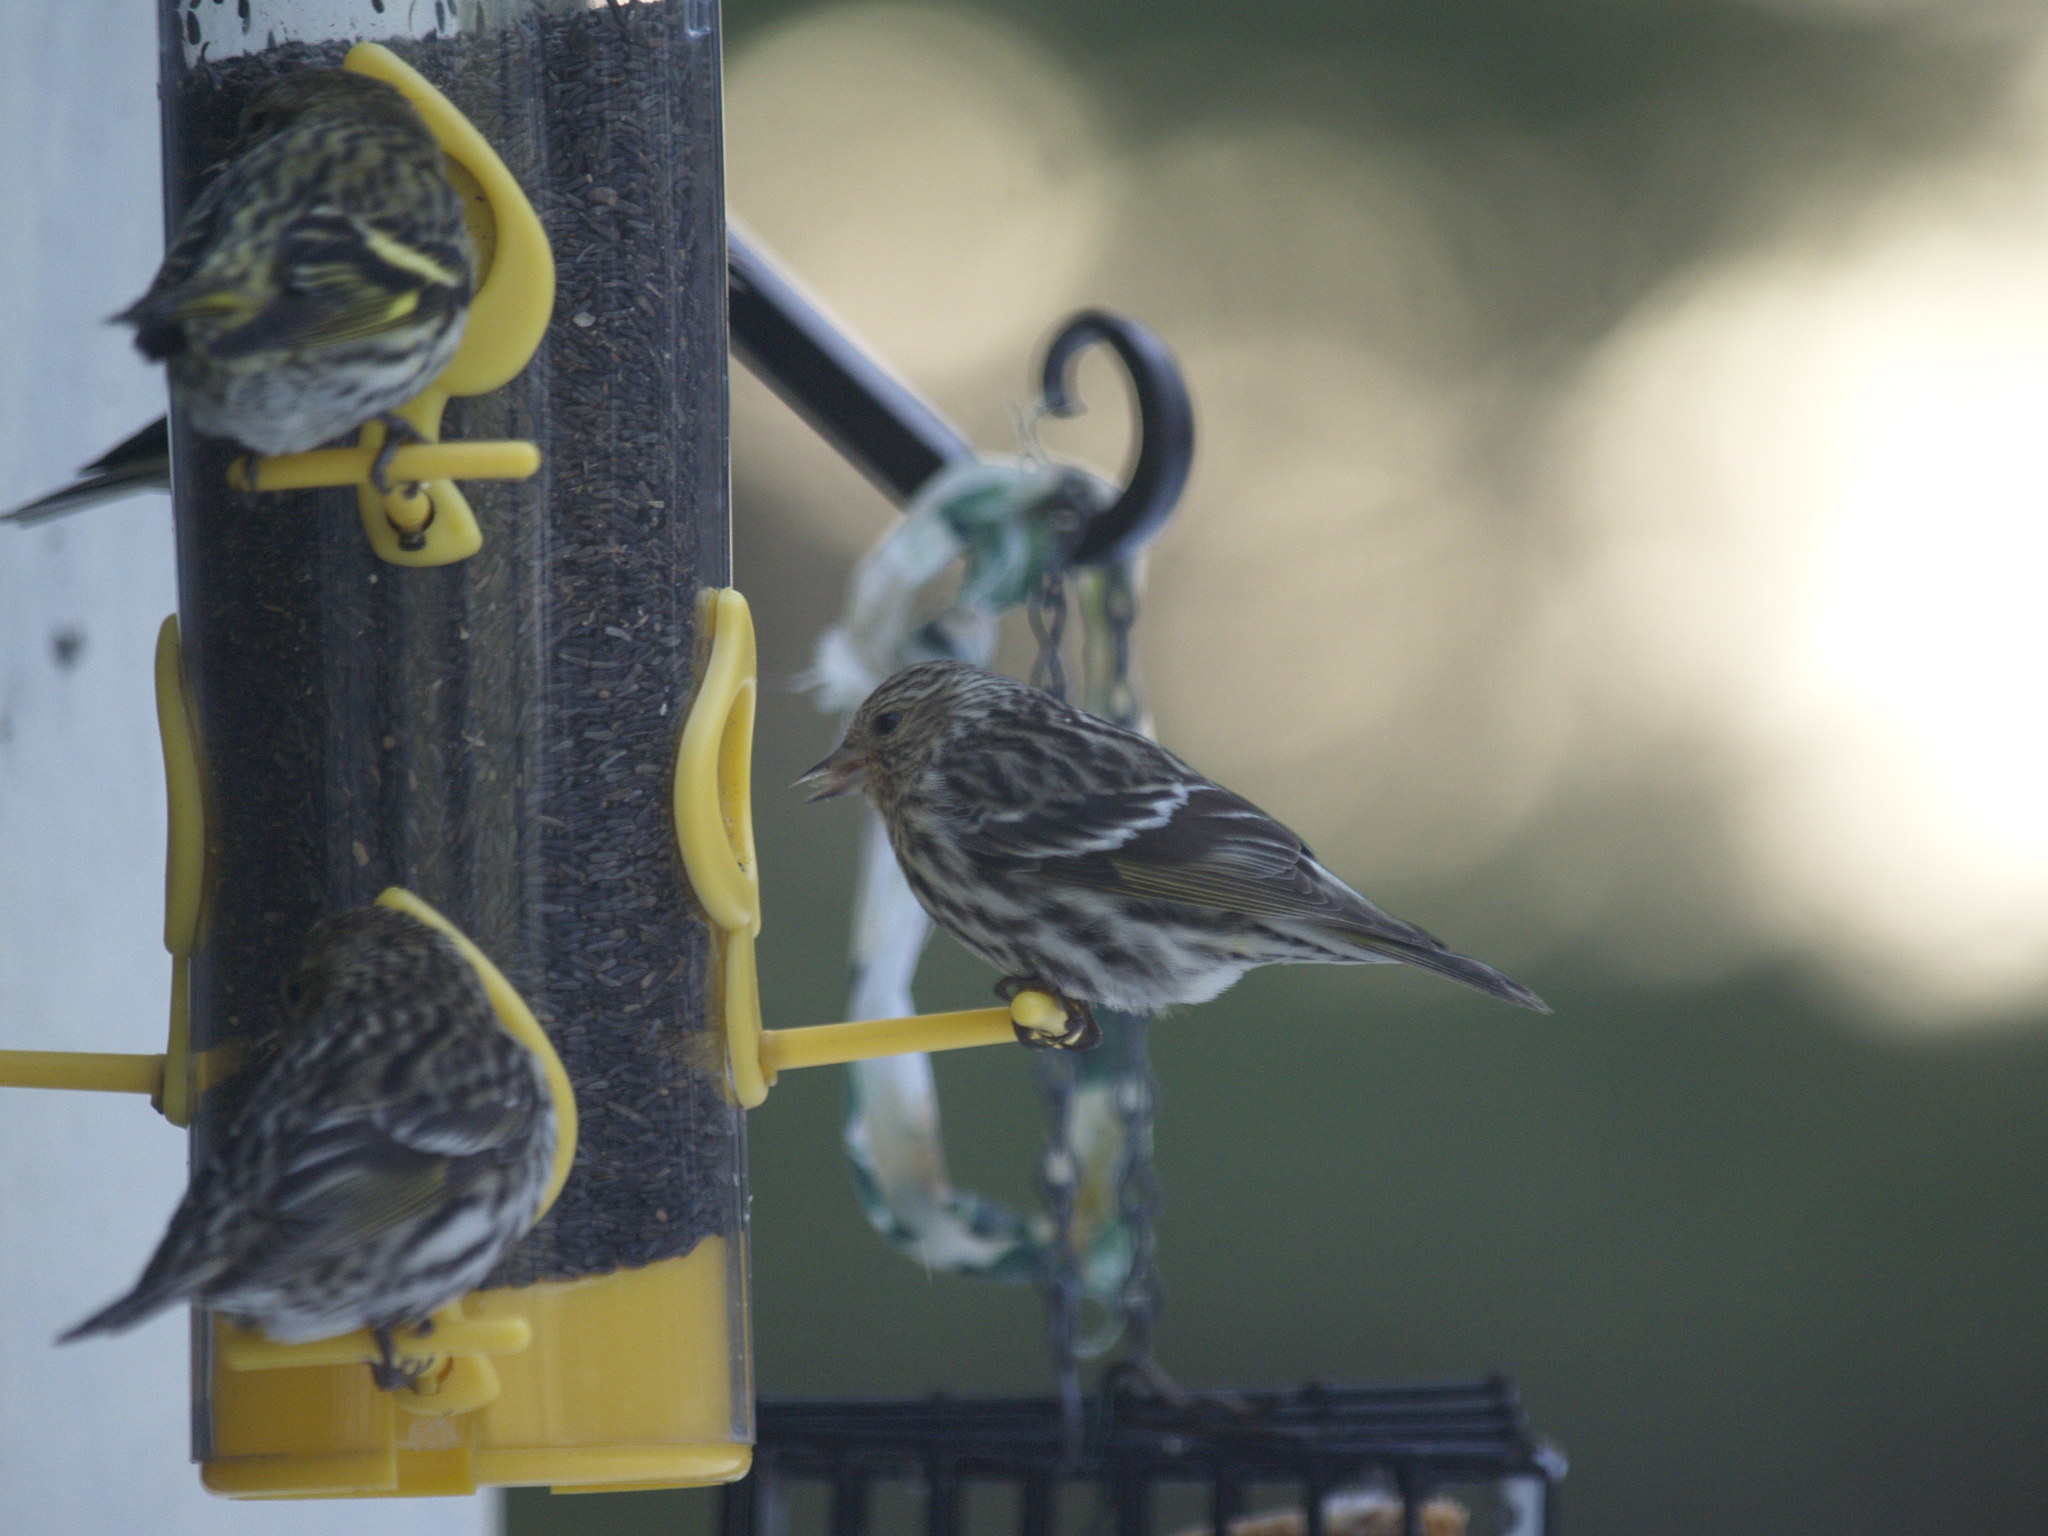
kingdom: Animalia
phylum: Chordata
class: Aves
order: Passeriformes
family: Fringillidae
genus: Spinus
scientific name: Spinus pinus
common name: Pine siskin
